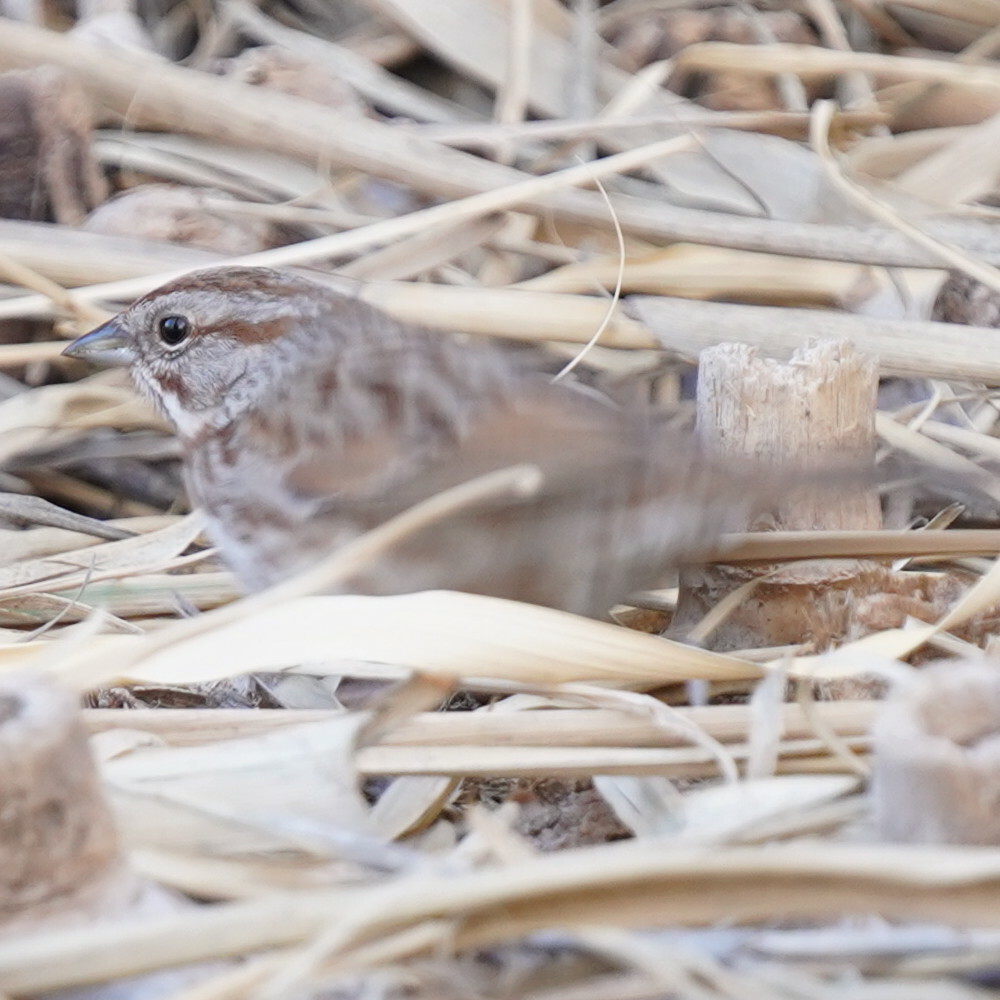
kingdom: Animalia
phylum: Chordata
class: Aves
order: Passeriformes
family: Passerellidae
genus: Melospiza
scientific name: Melospiza melodia
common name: Song sparrow
